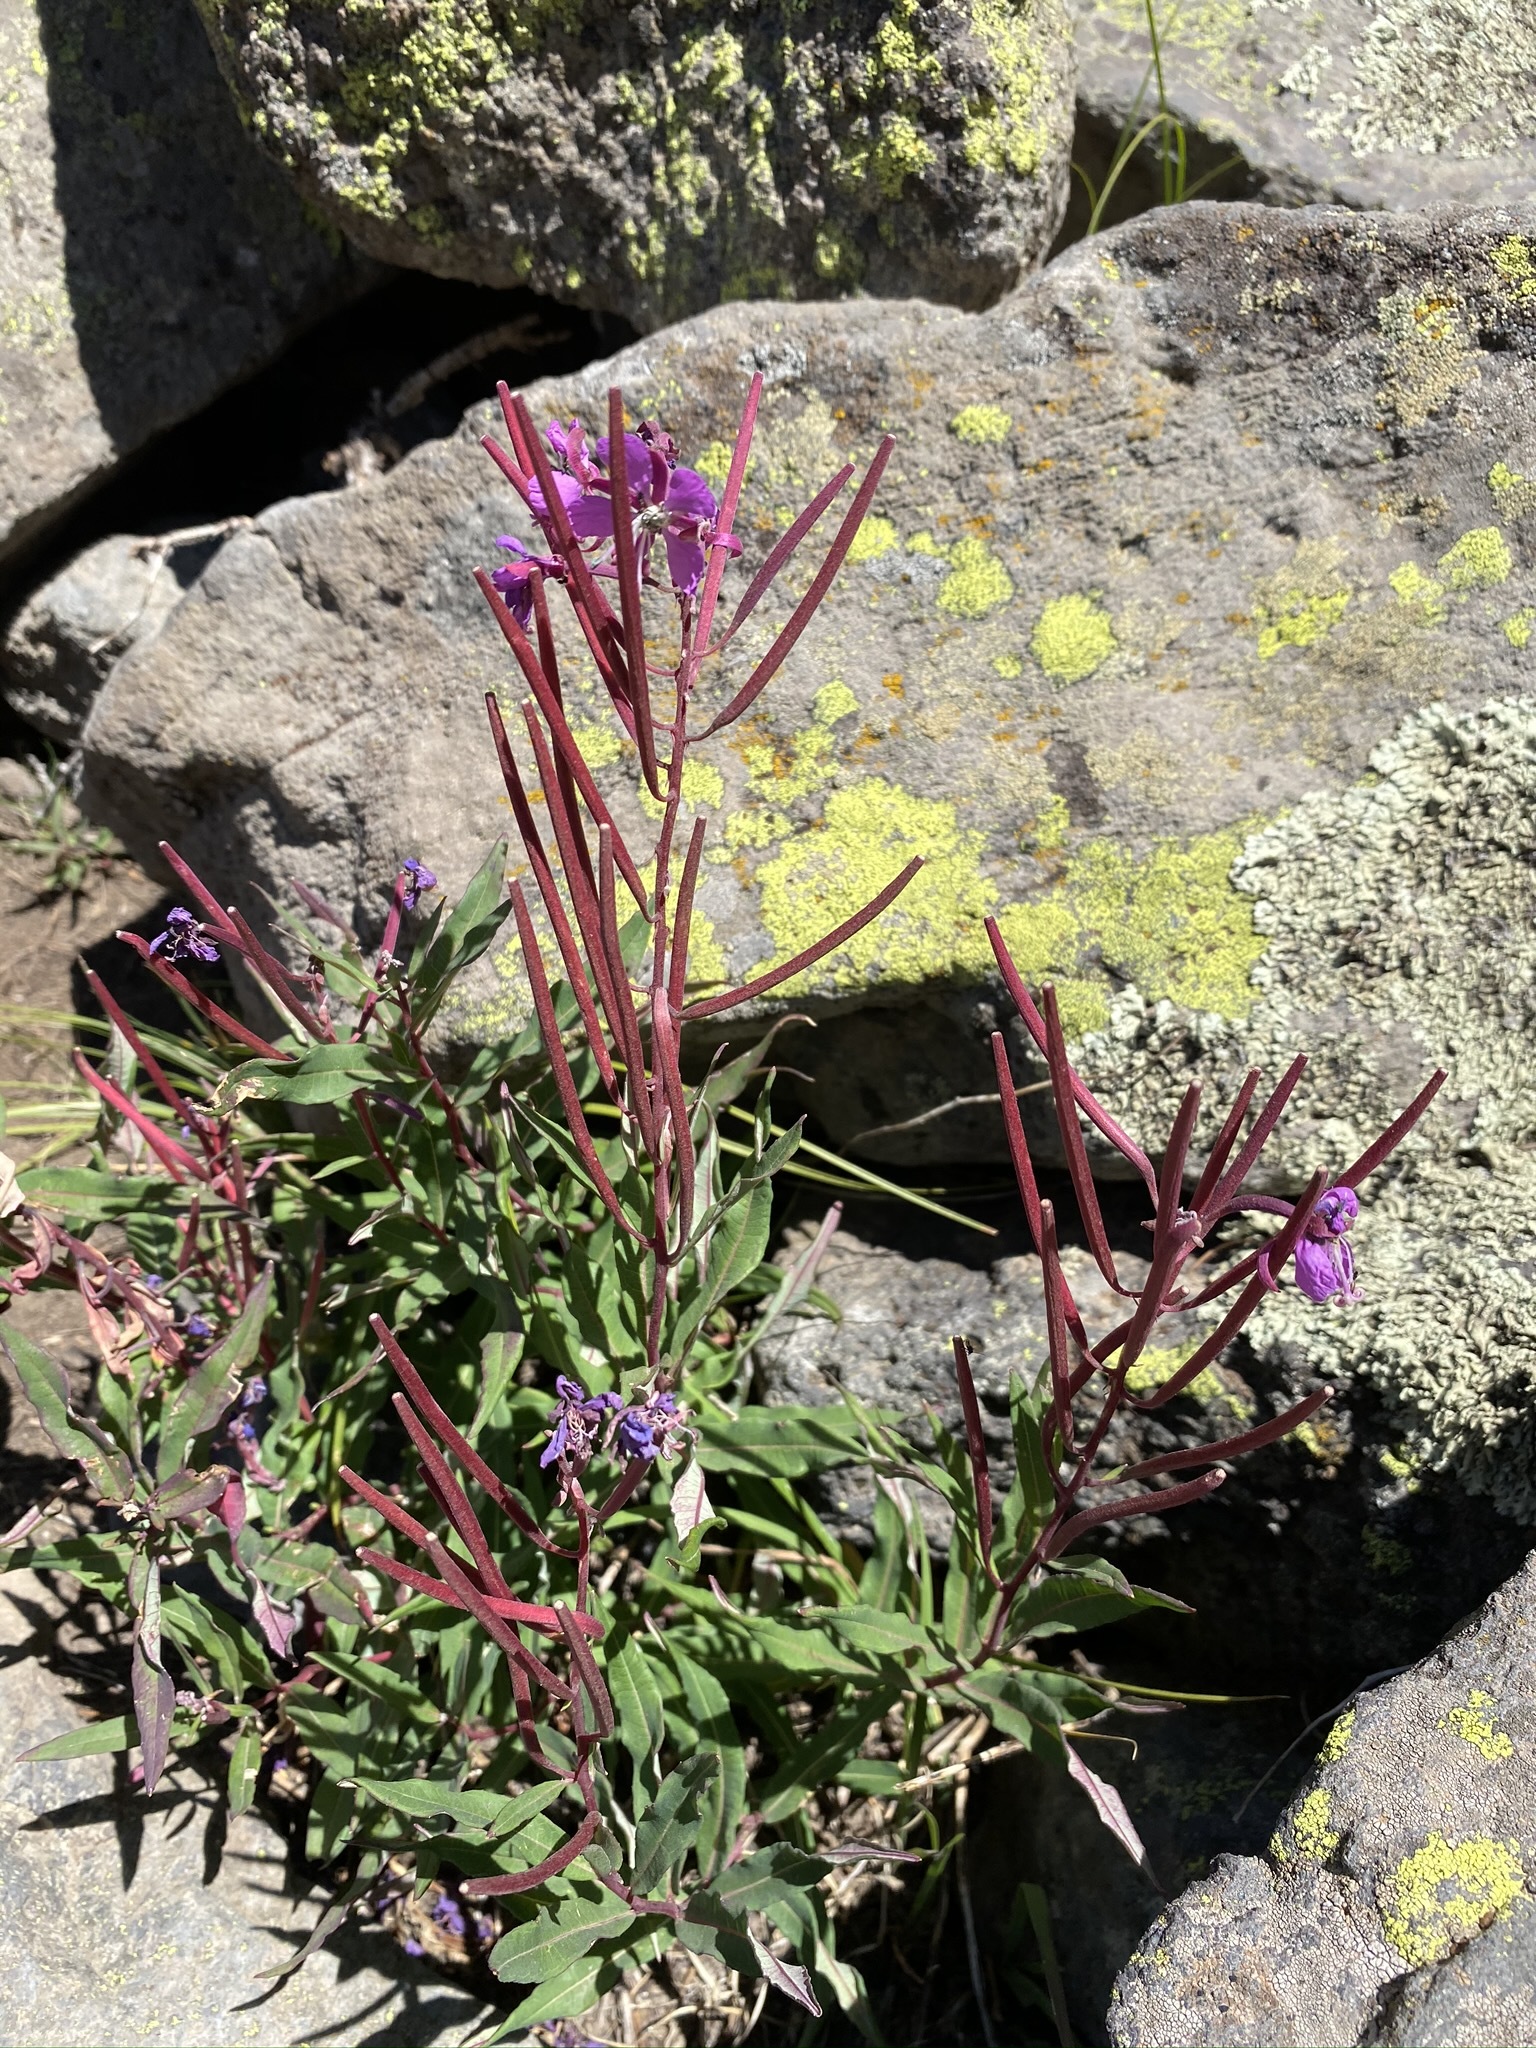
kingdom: Plantae
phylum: Tracheophyta
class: Magnoliopsida
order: Myrtales
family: Onagraceae
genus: Chamaenerion
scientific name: Chamaenerion angustifolium
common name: Fireweed
